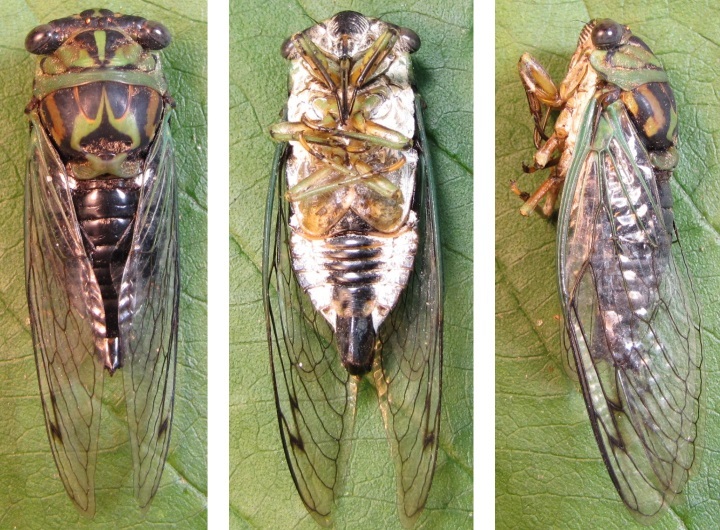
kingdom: Animalia
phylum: Arthropoda
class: Insecta
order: Hemiptera
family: Cicadidae
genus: Neotibicen
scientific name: Neotibicen linnei
